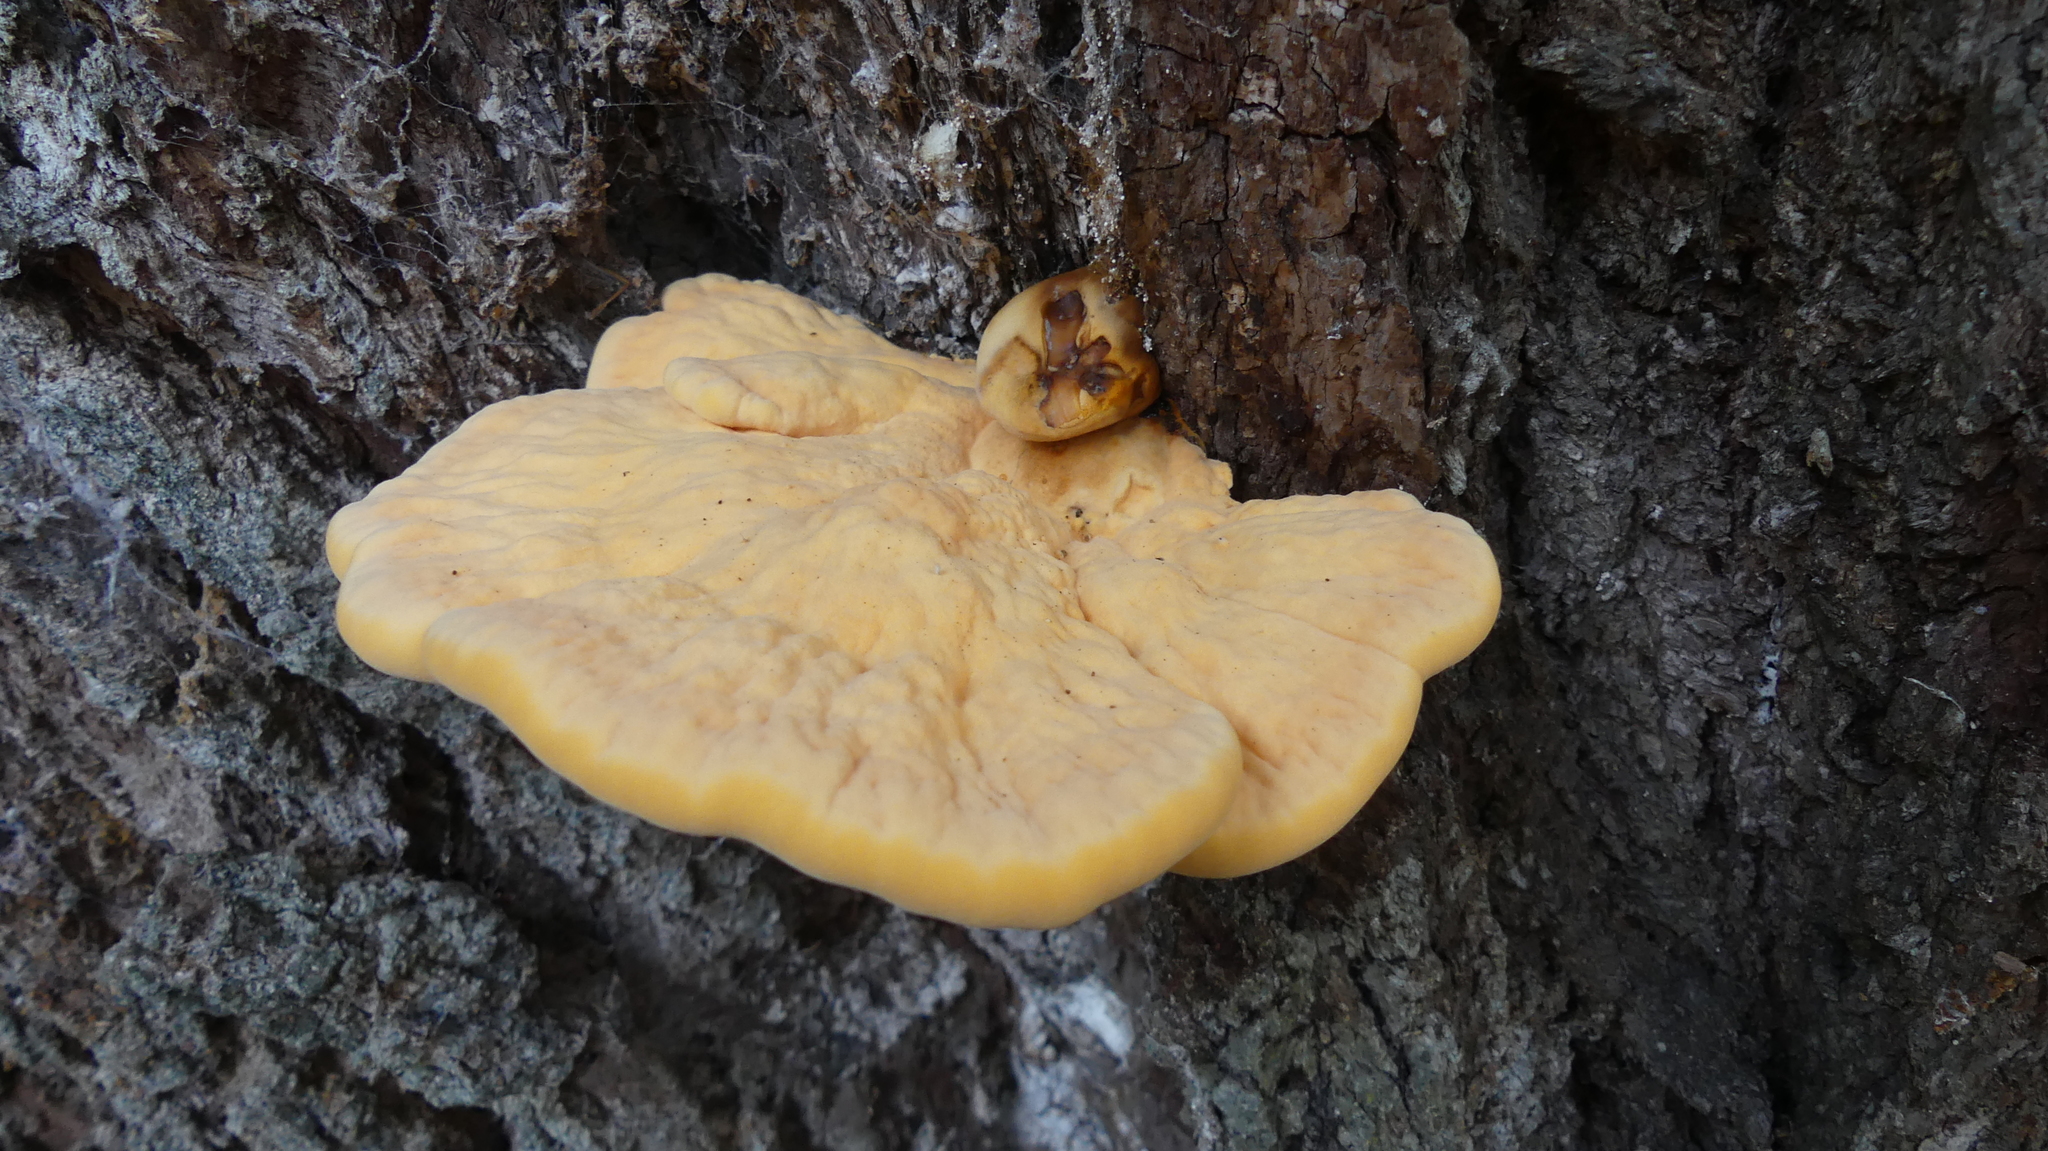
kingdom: Fungi
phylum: Basidiomycota
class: Agaricomycetes
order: Polyporales
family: Laetiporaceae
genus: Laetiporus
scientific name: Laetiporus gilbertsonii
